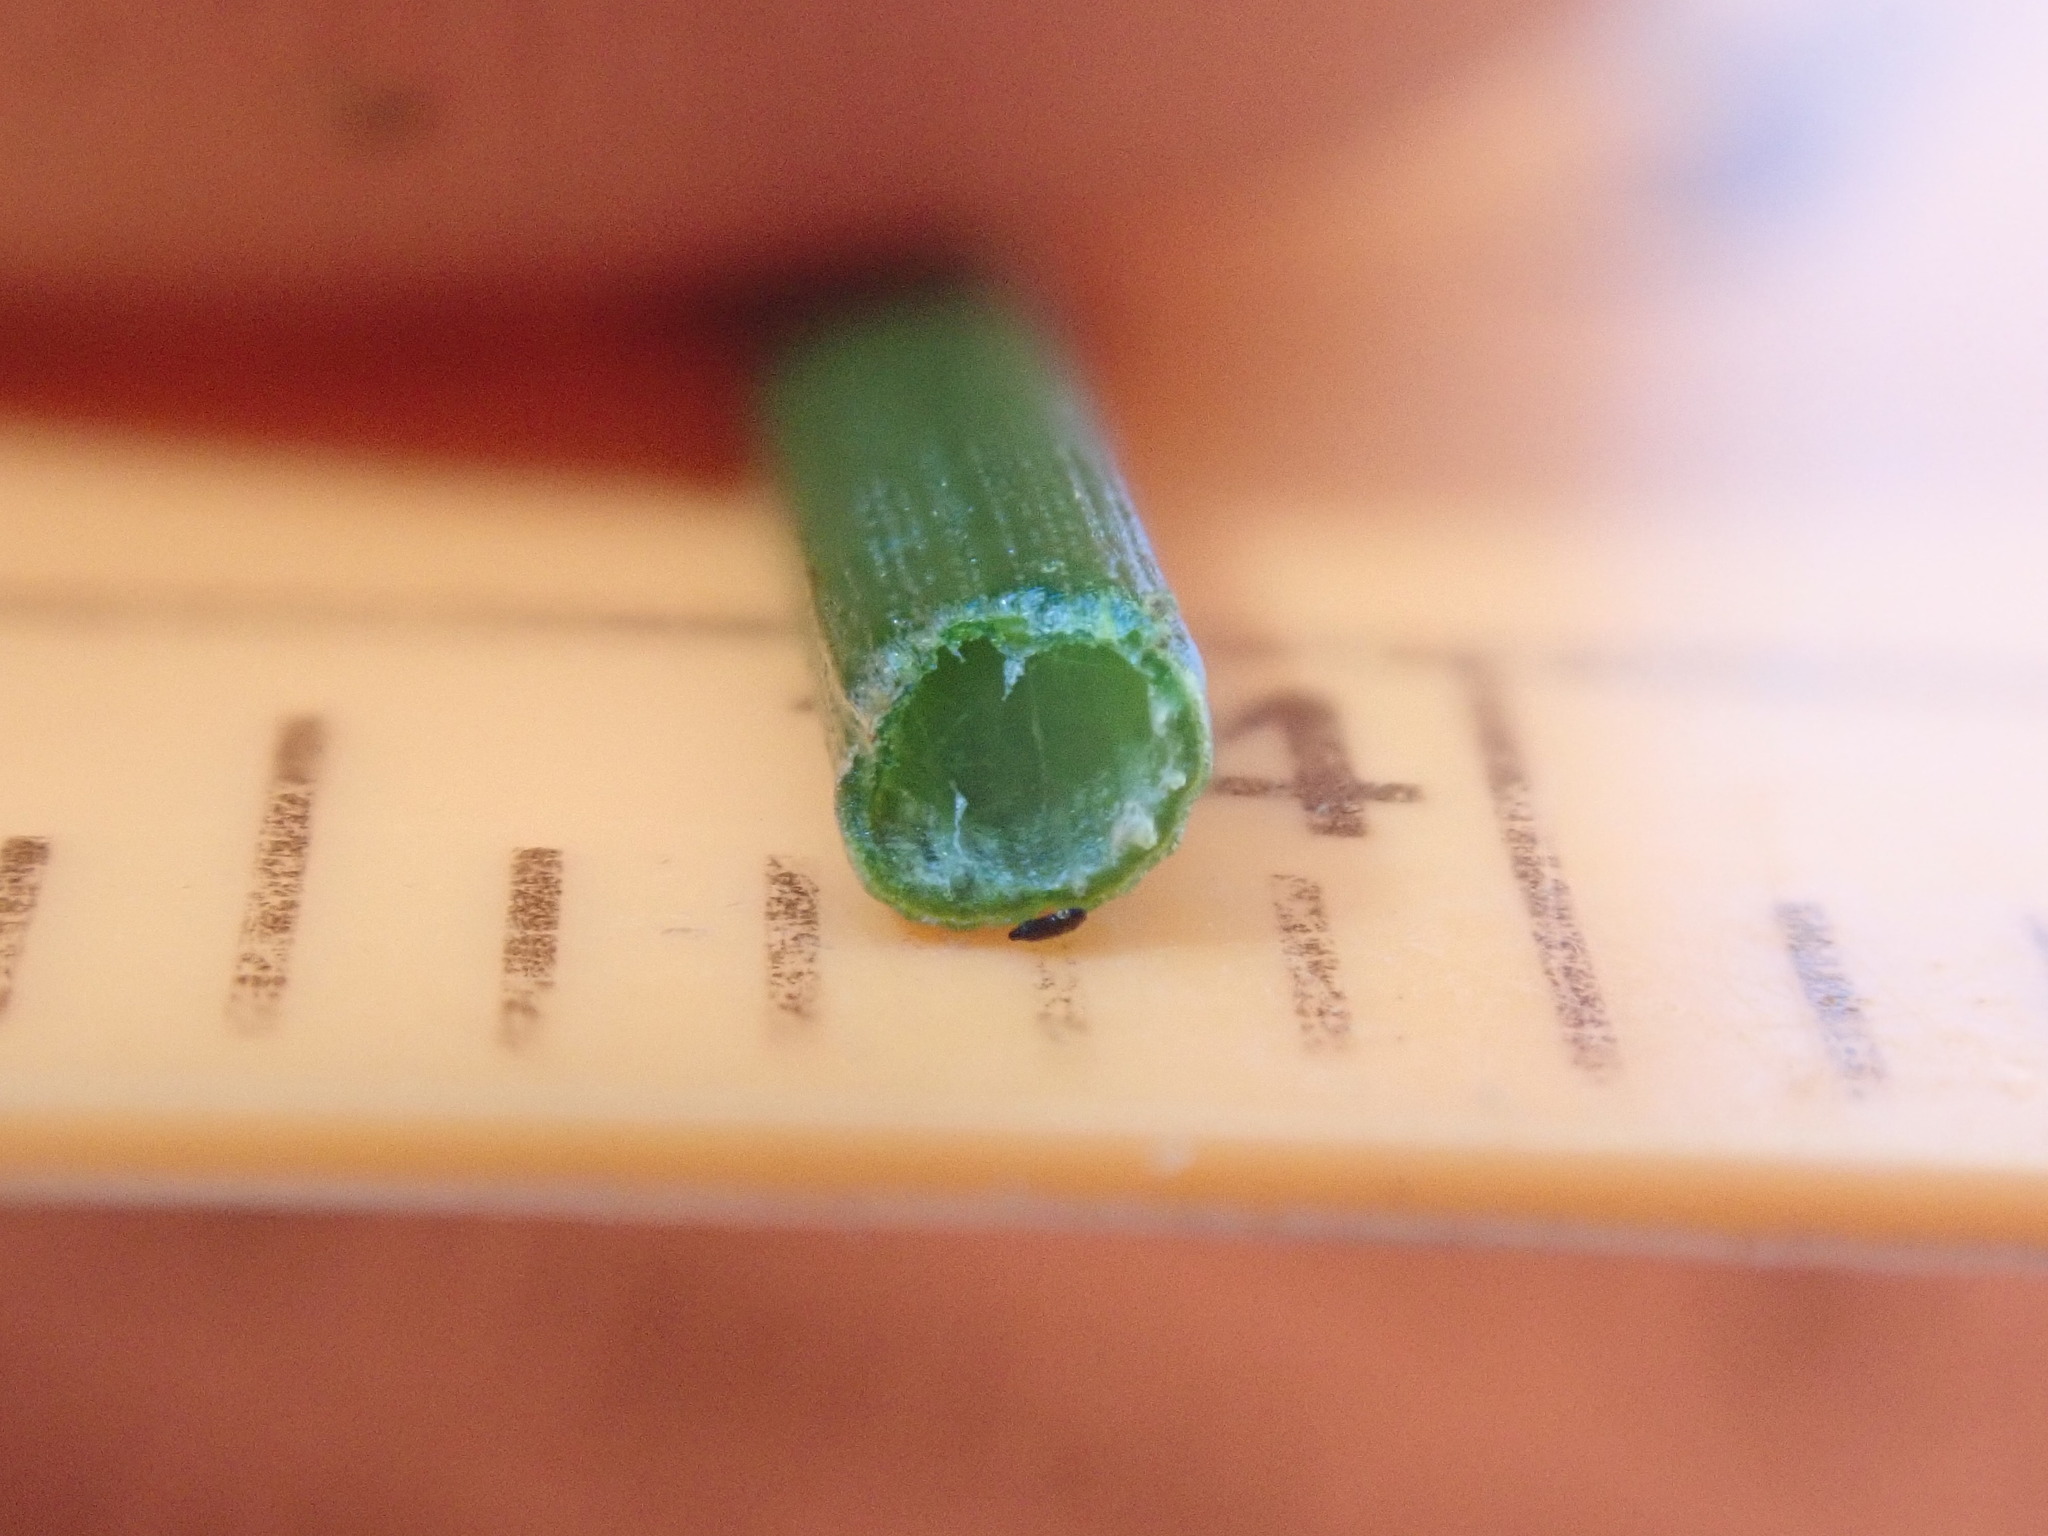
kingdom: Plantae
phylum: Tracheophyta
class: Liliopsida
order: Poales
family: Juncaceae
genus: Juncus
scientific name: Juncus mertensianus
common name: Merten's rush
